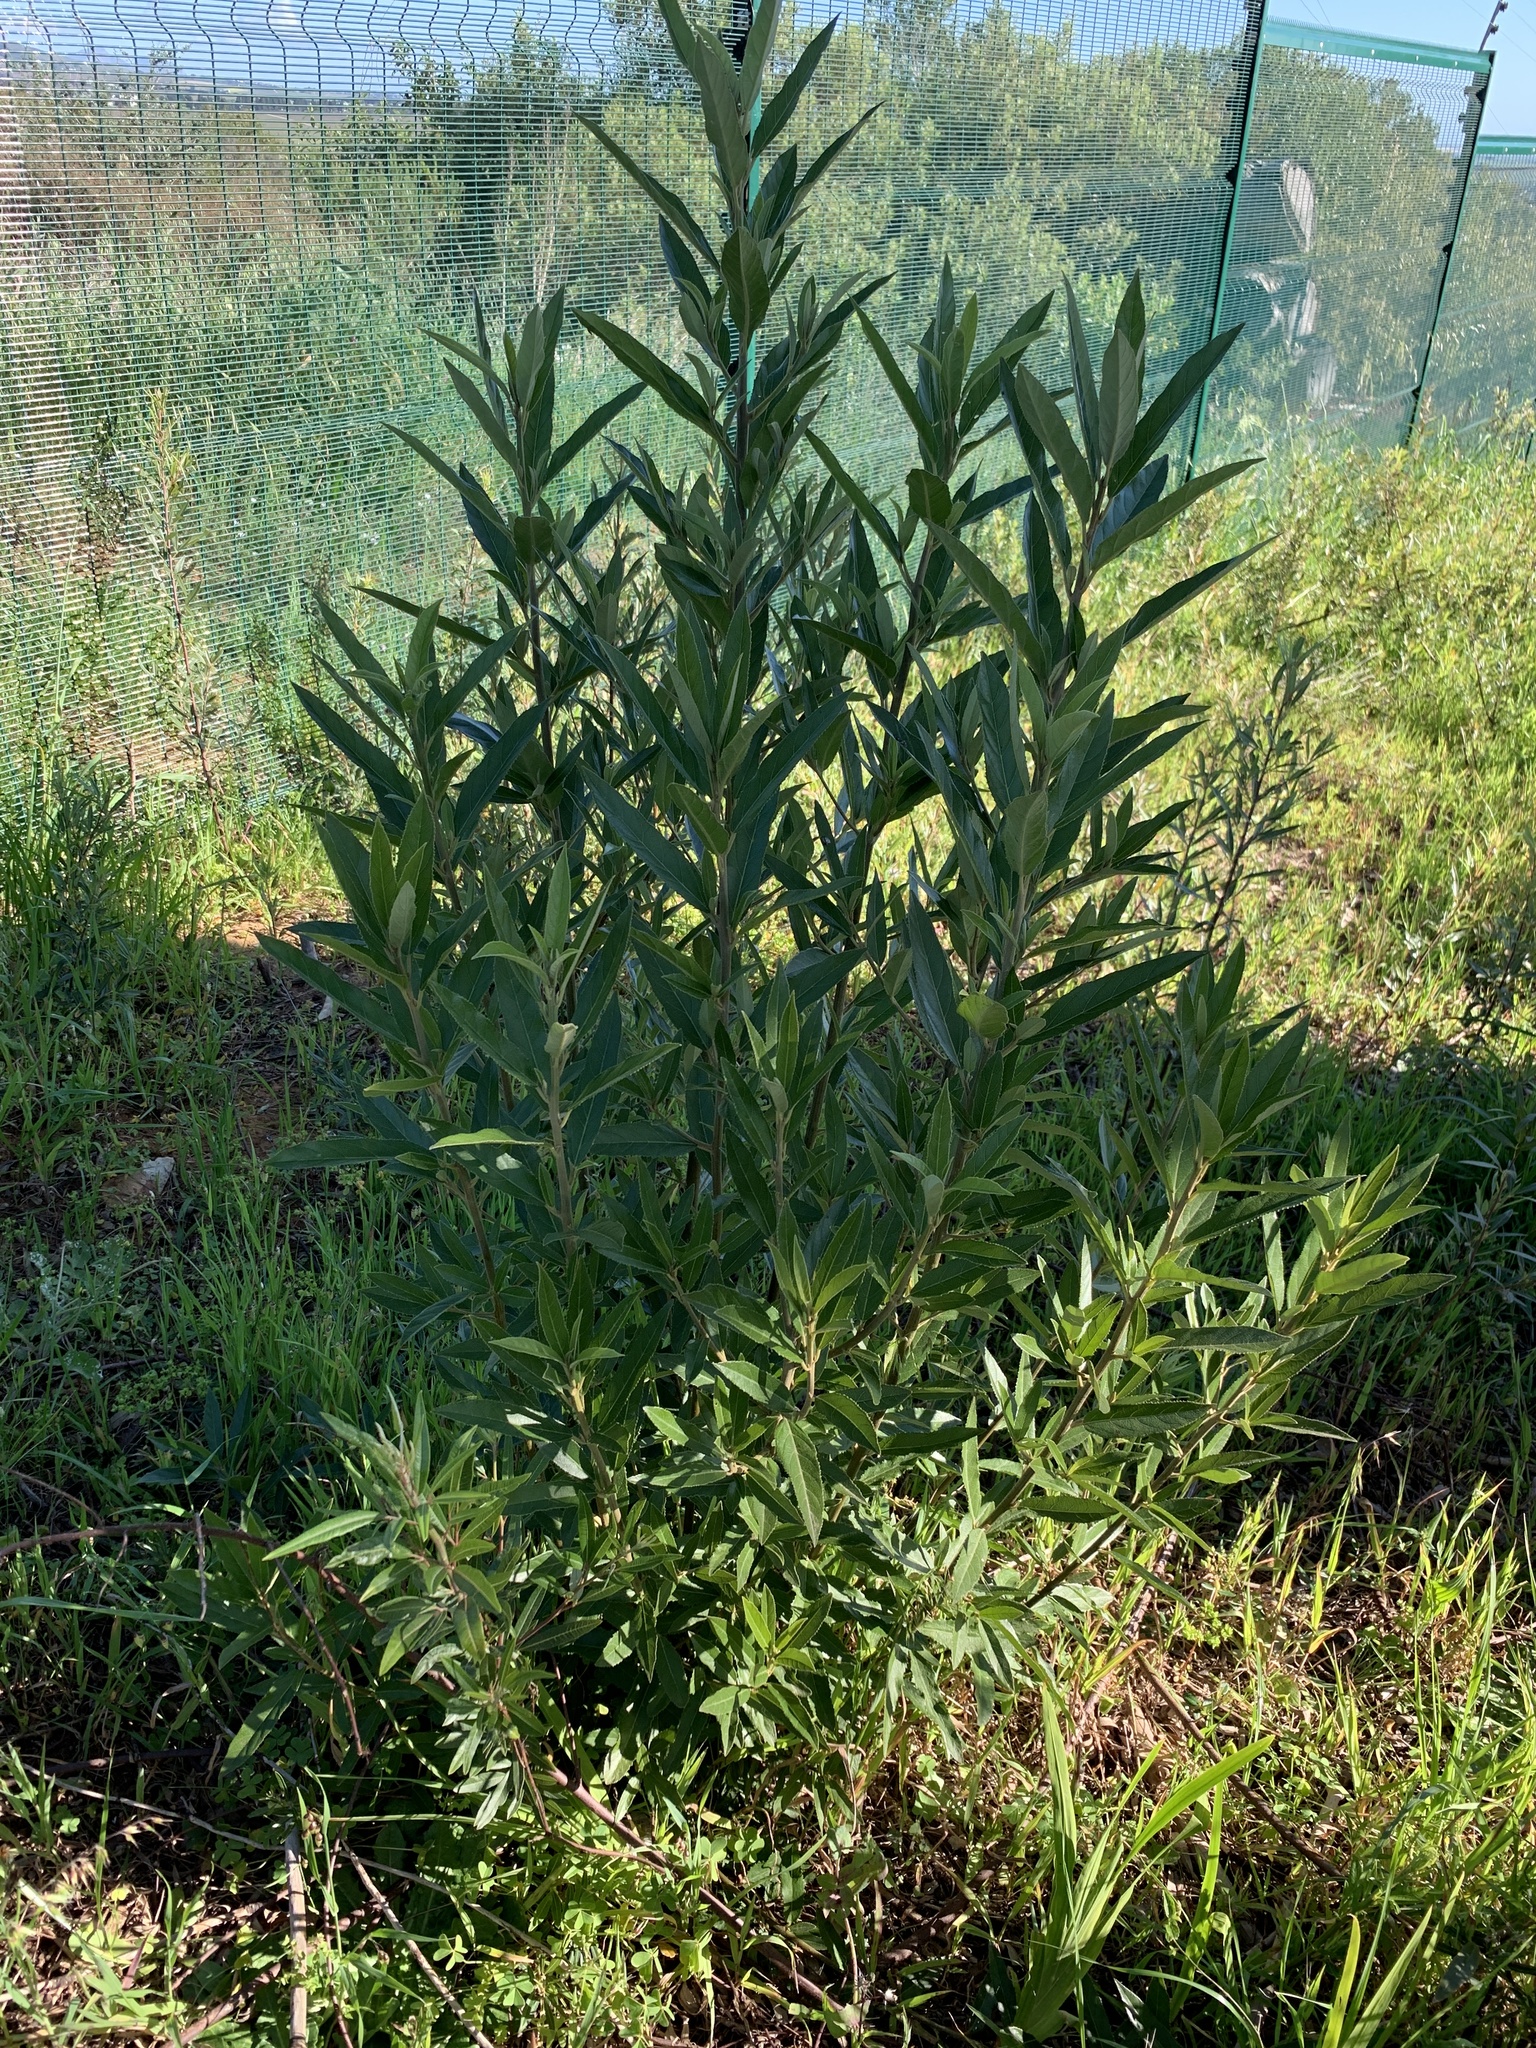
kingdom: Plantae
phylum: Tracheophyta
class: Magnoliopsida
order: Malpighiales
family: Achariaceae
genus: Kiggelaria
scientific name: Kiggelaria africana
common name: Wild peach
